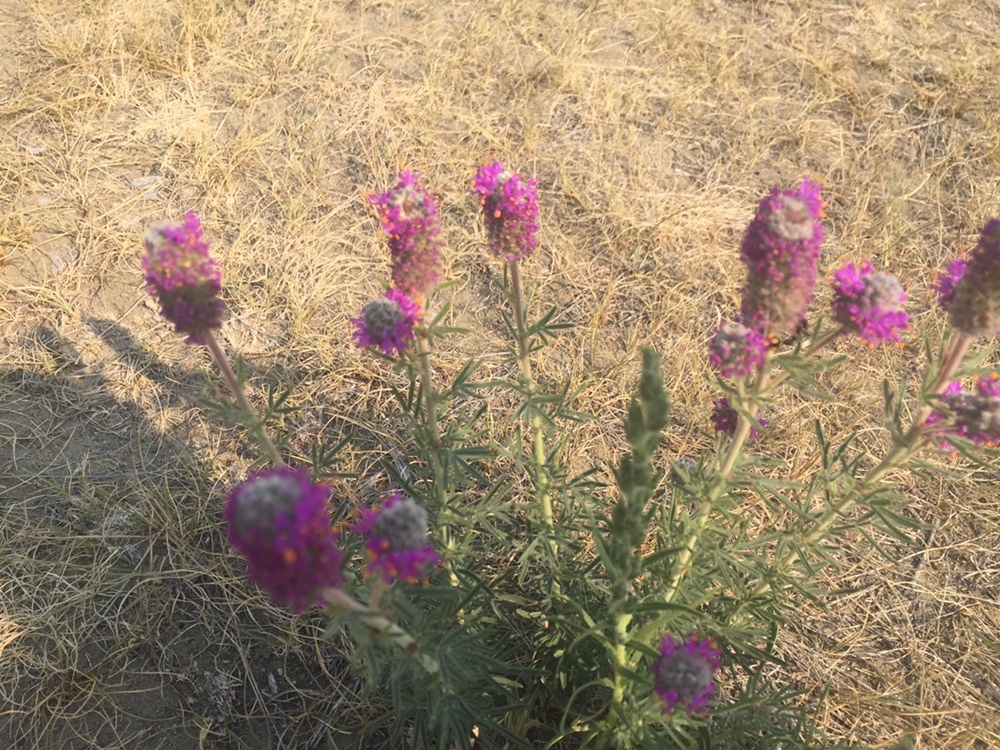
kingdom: Plantae
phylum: Tracheophyta
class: Magnoliopsida
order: Fabales
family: Fabaceae
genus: Dalea
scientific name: Dalea purpurea
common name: Purple prairie-clover
